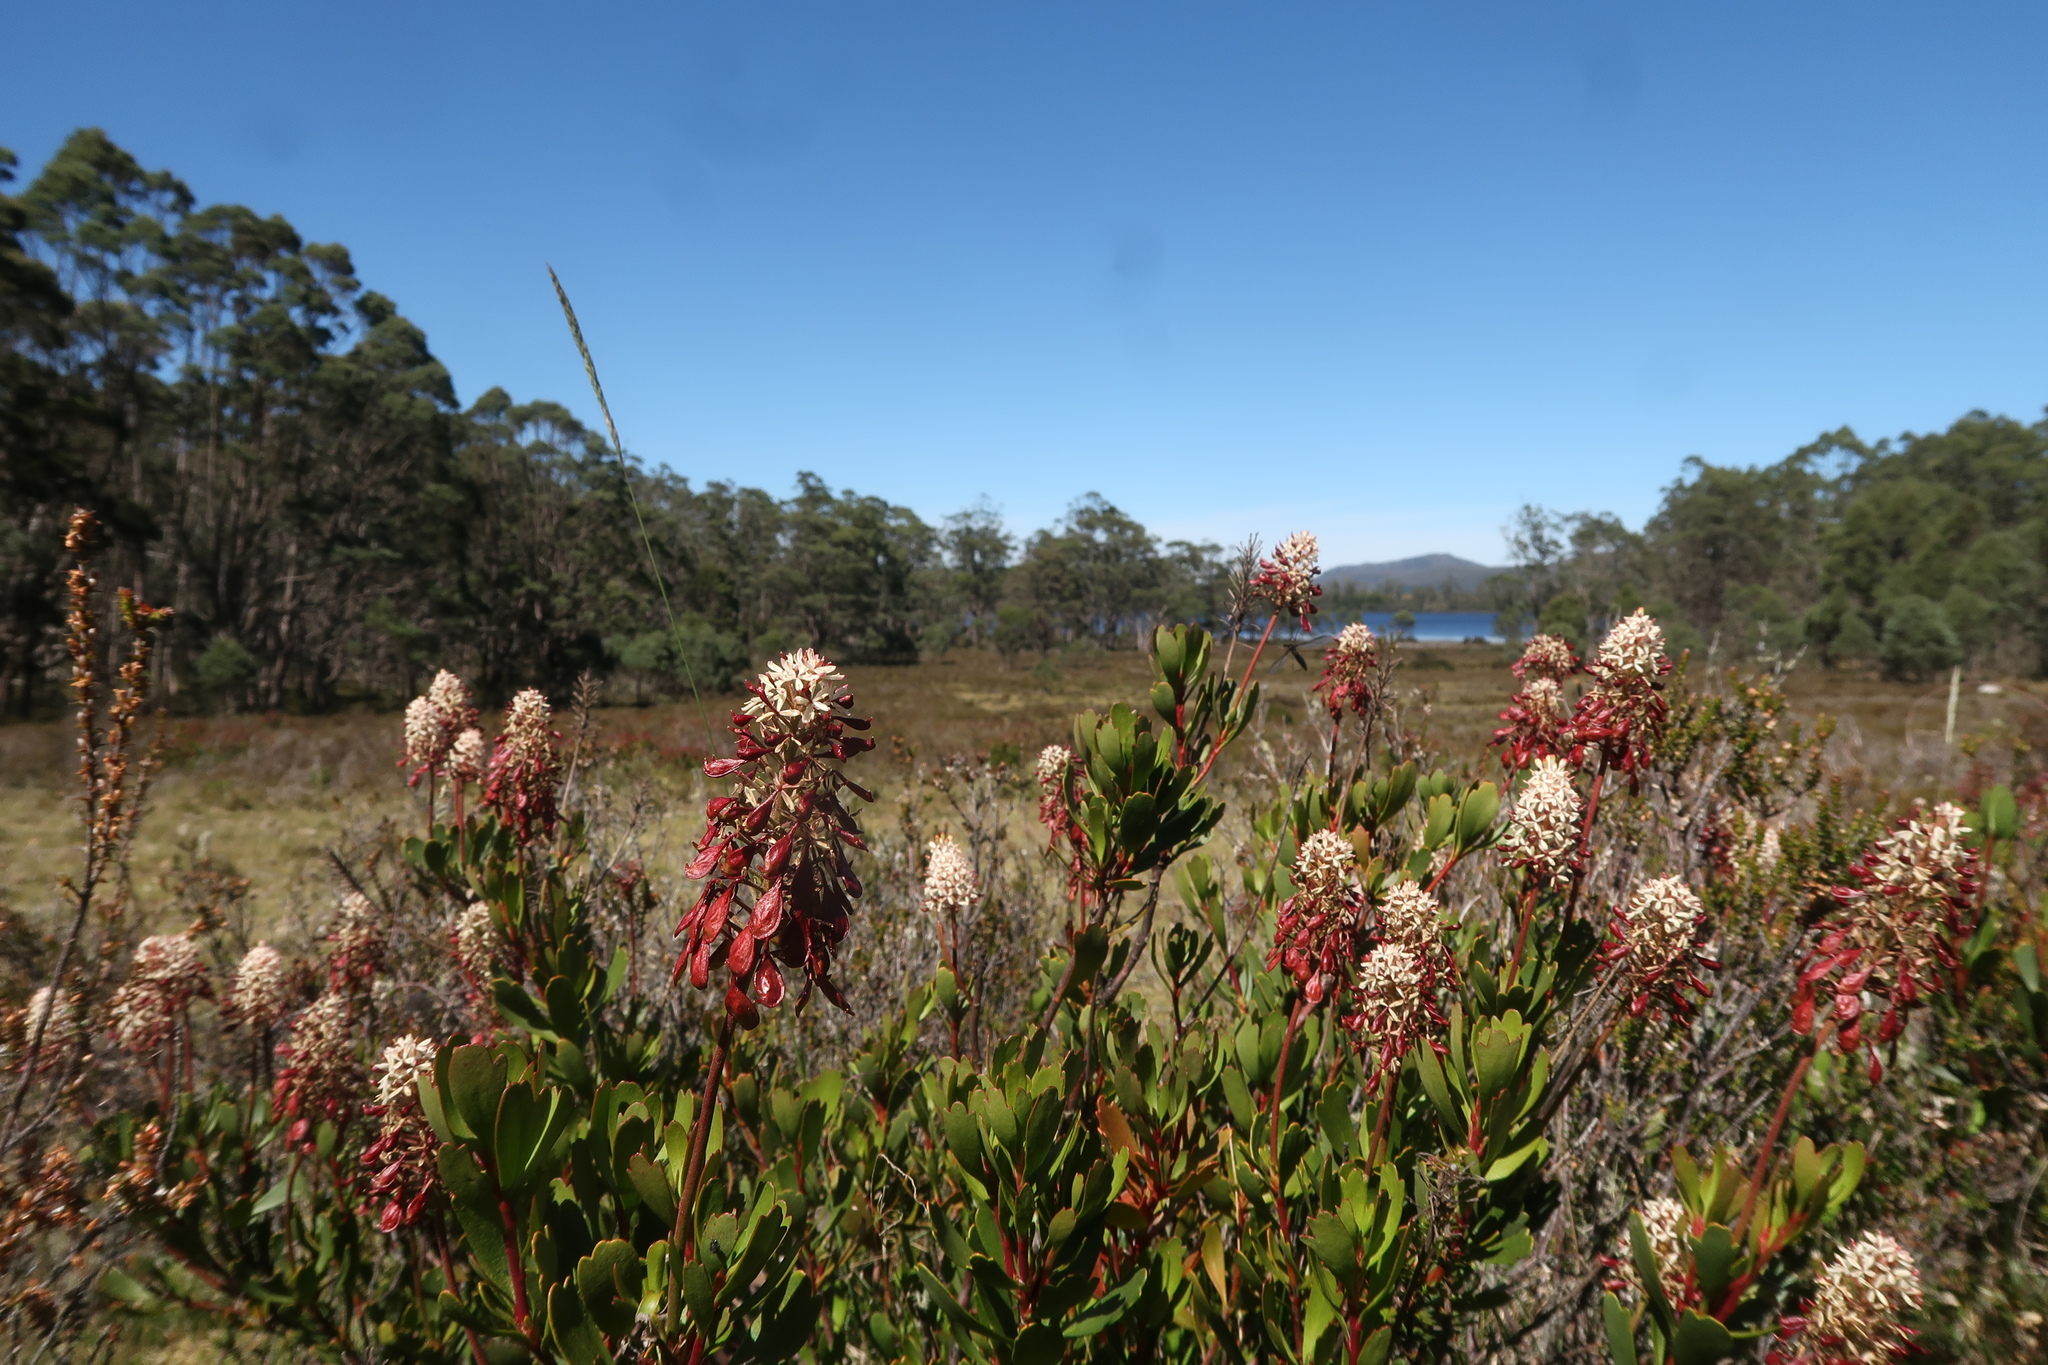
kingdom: Plantae
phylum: Tracheophyta
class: Magnoliopsida
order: Proteales
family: Proteaceae
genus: Bellendena
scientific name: Bellendena montana
